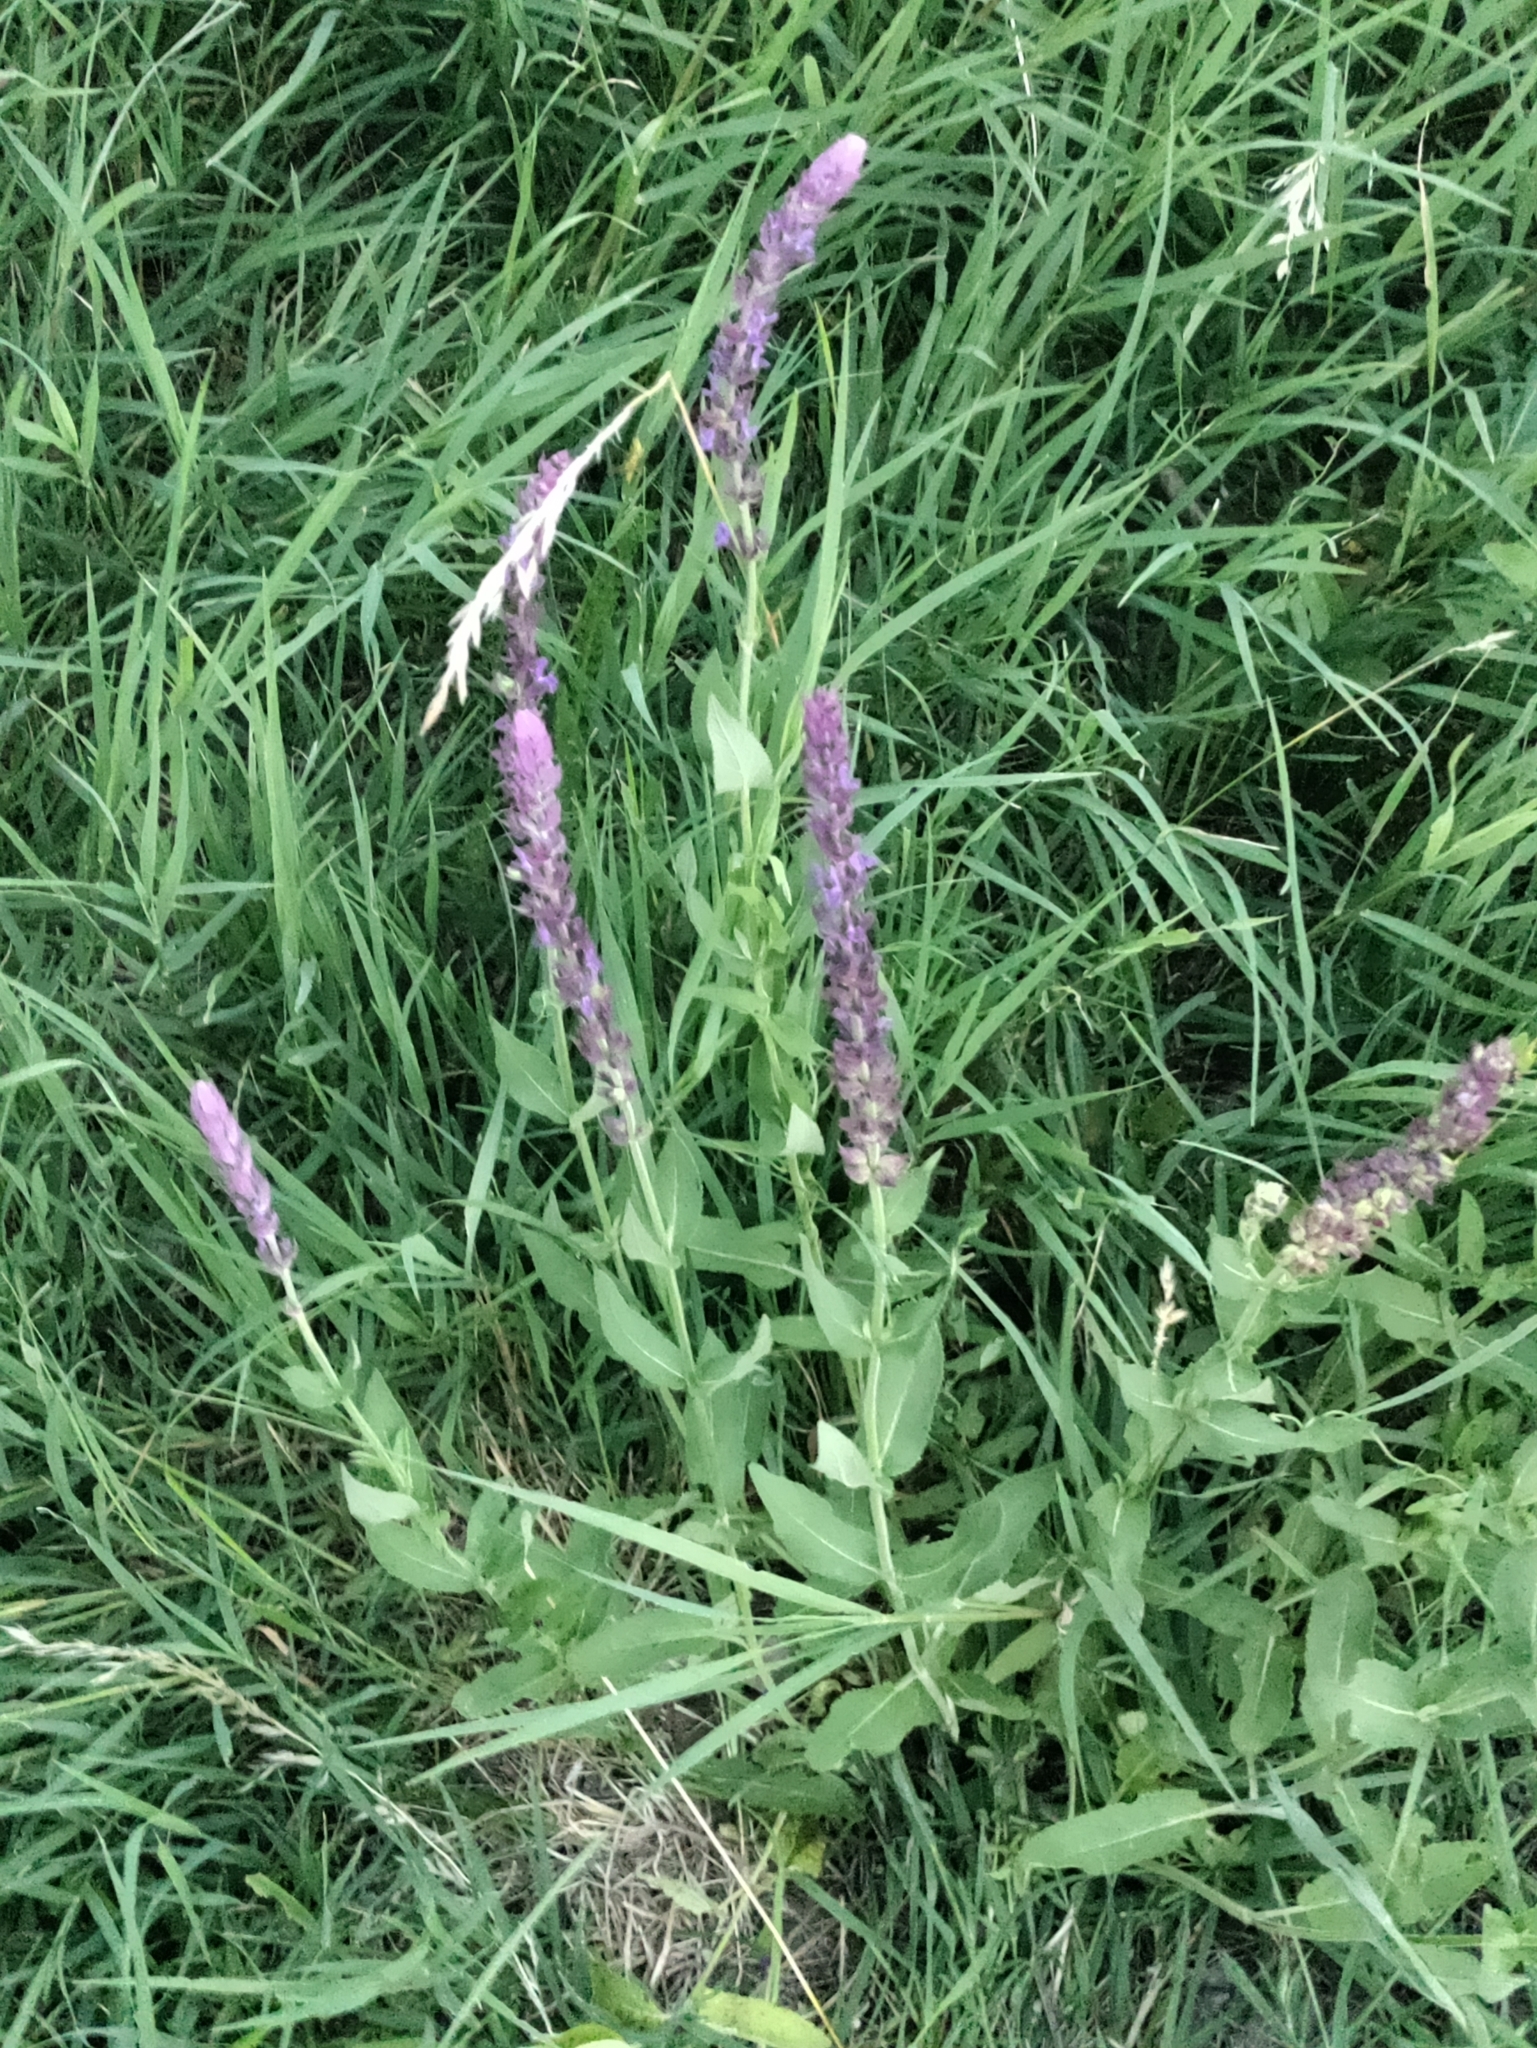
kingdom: Plantae
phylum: Tracheophyta
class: Magnoliopsida
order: Lamiales
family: Lamiaceae
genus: Salvia
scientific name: Salvia nemorosa
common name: Balkan clary
